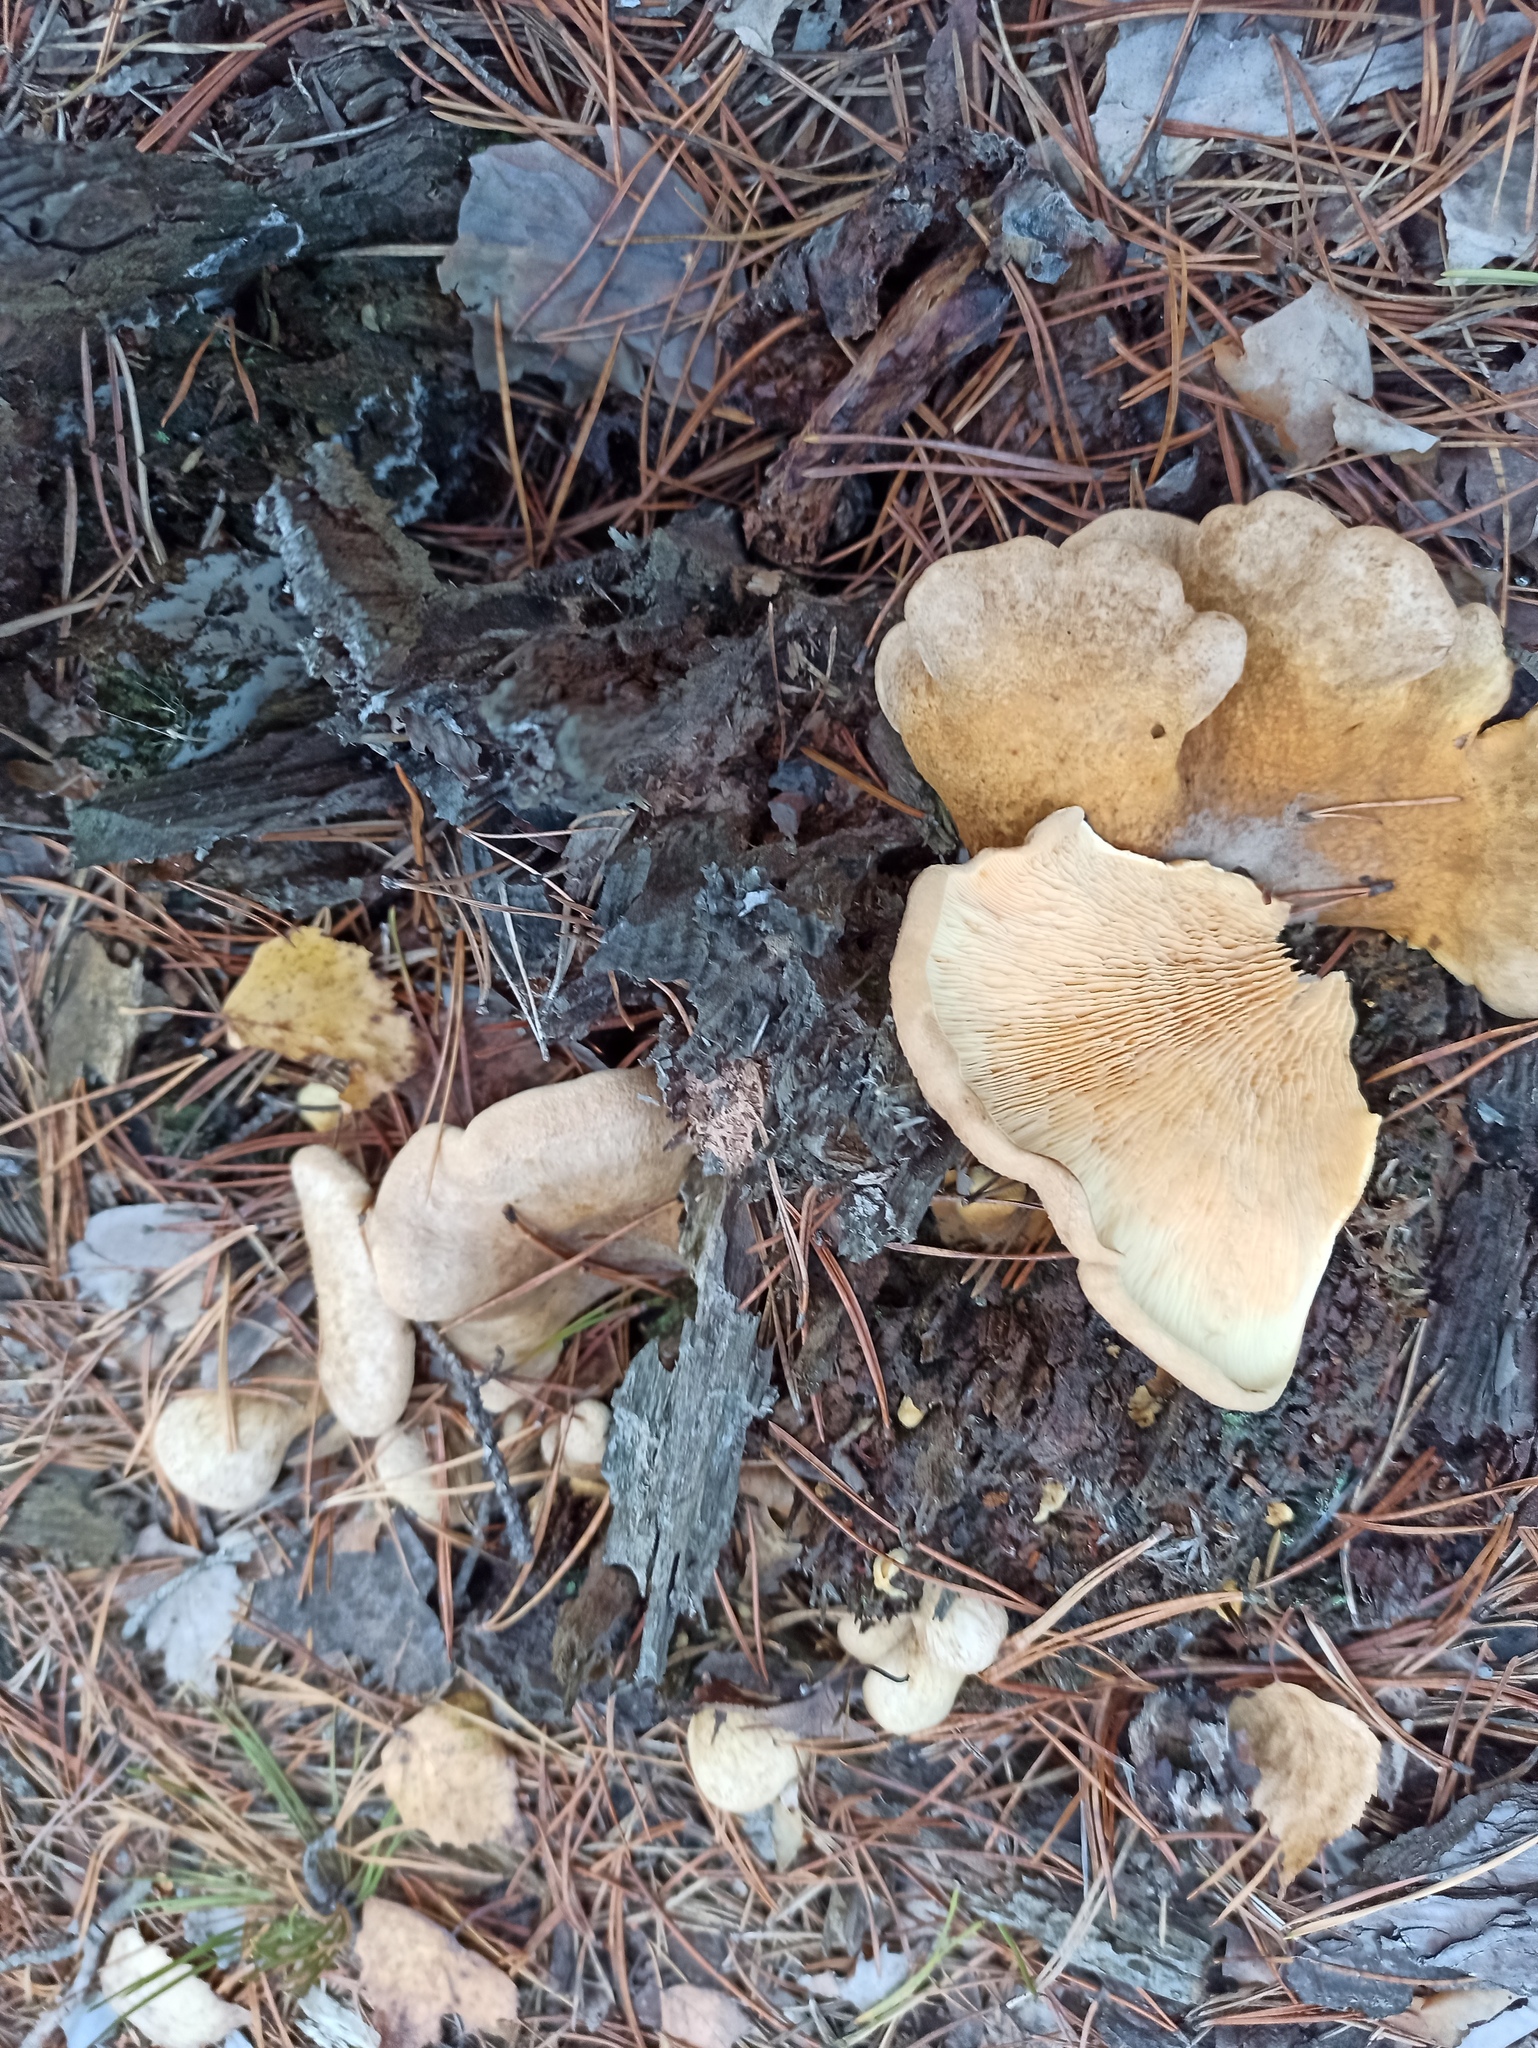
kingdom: Fungi
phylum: Basidiomycota
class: Agaricomycetes
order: Boletales
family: Tapinellaceae
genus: Tapinella
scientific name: Tapinella panuoides
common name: Oyster rollrim
